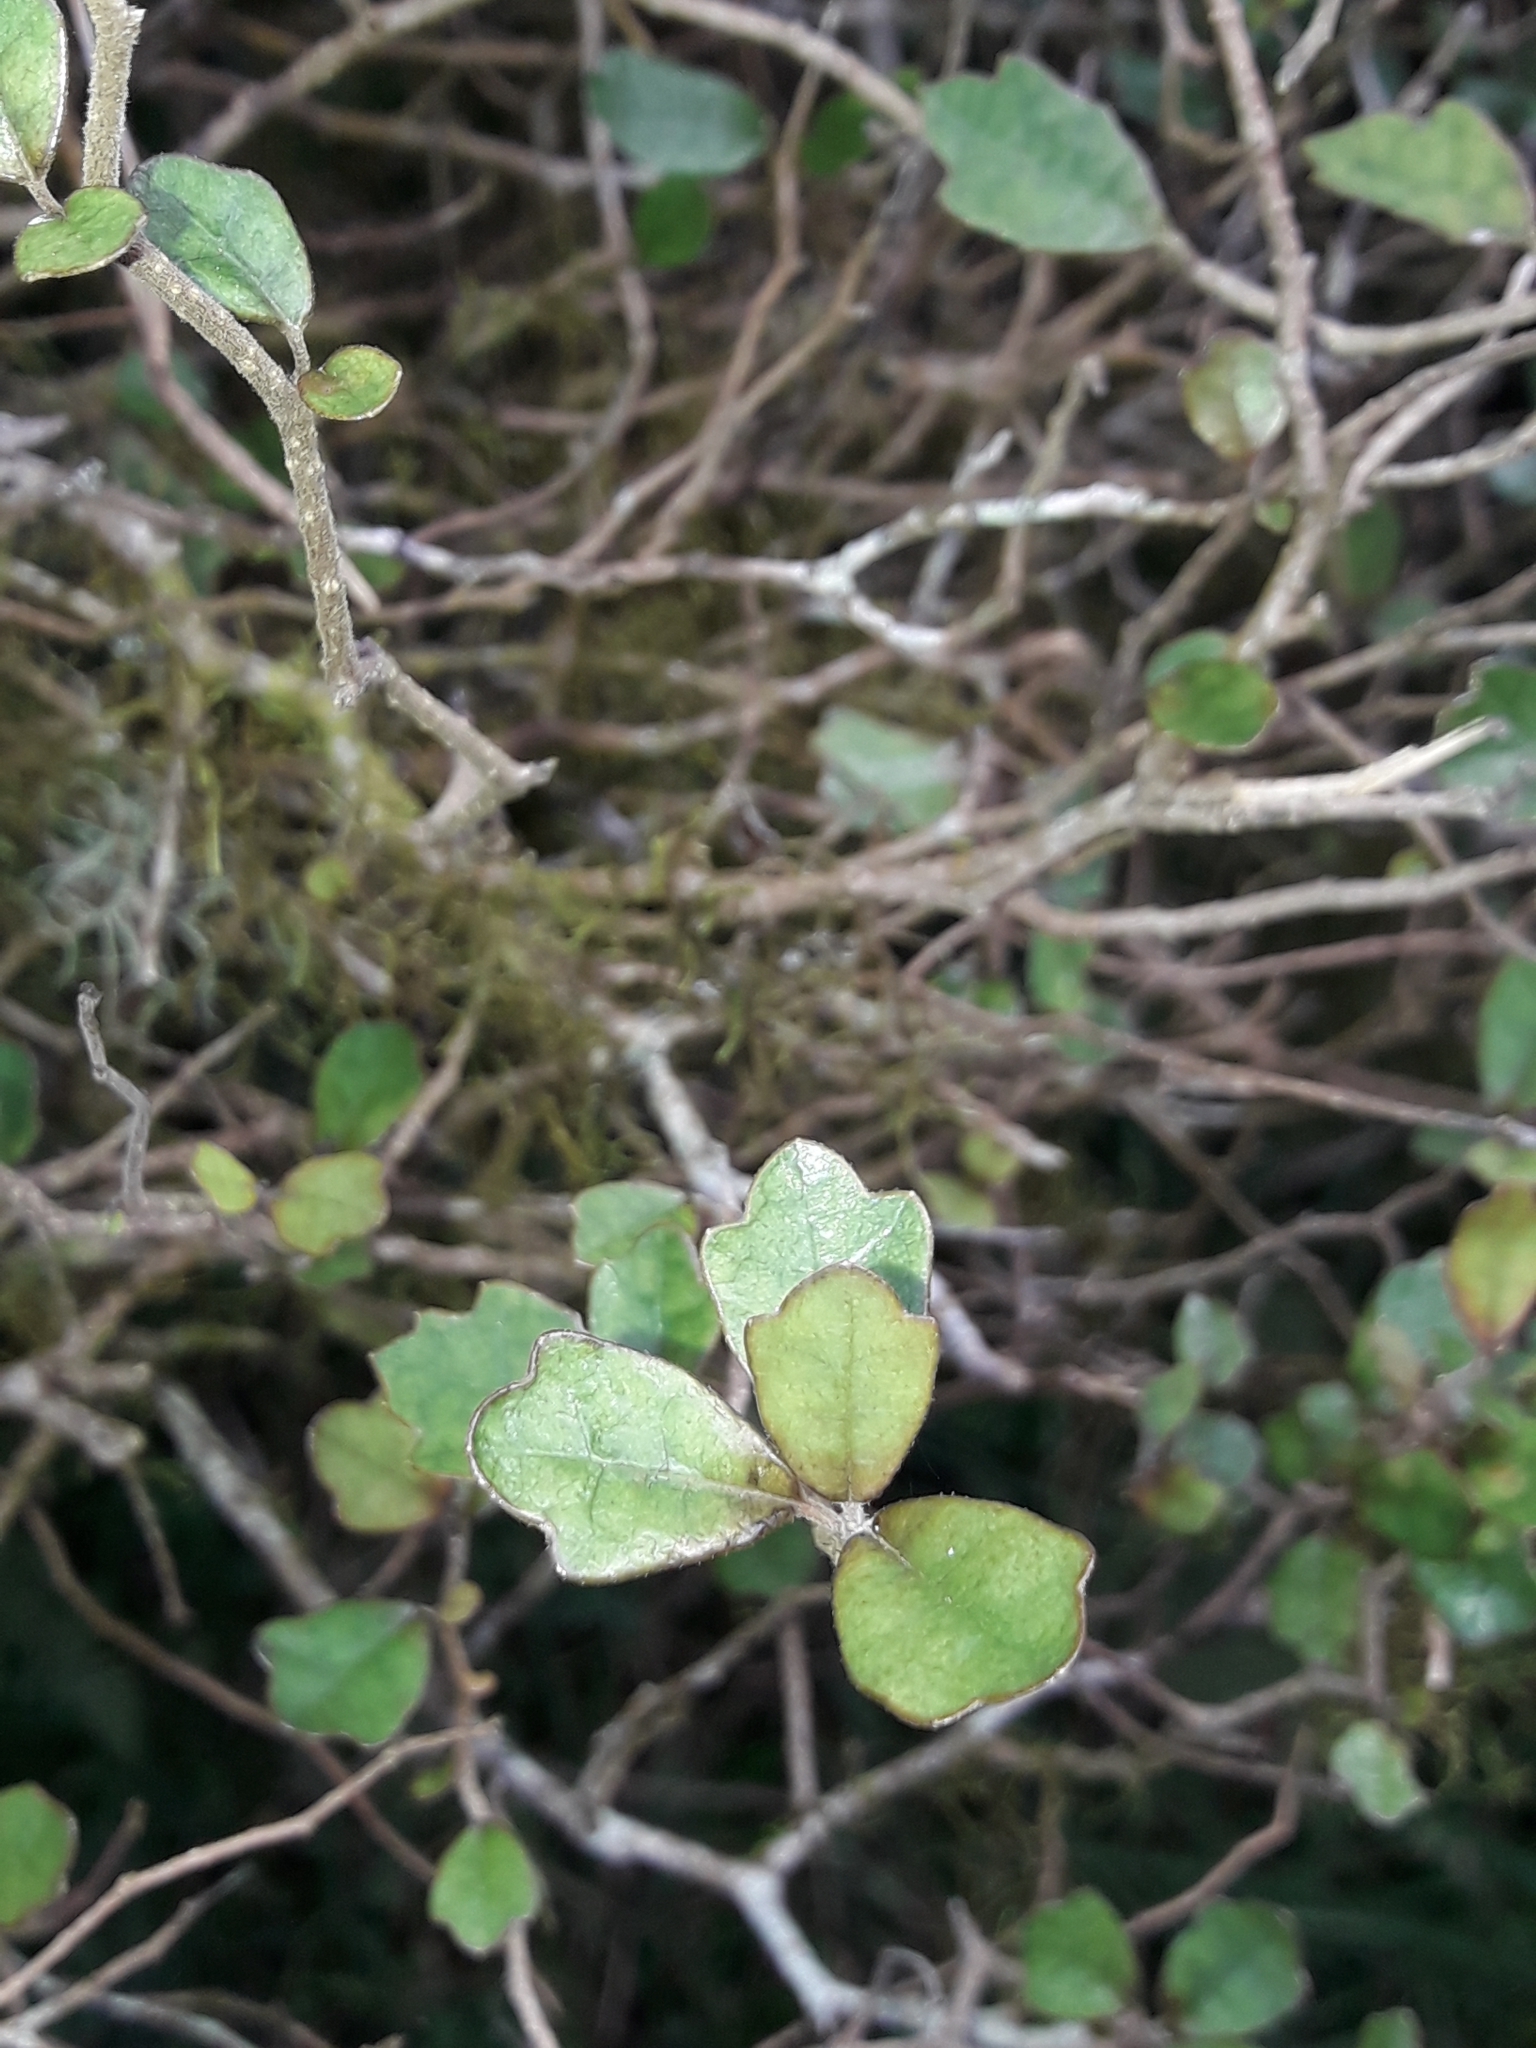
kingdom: Plantae
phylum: Tracheophyta
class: Magnoliopsida
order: Apiales
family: Pennantiaceae
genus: Pennantia
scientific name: Pennantia corymbosa
